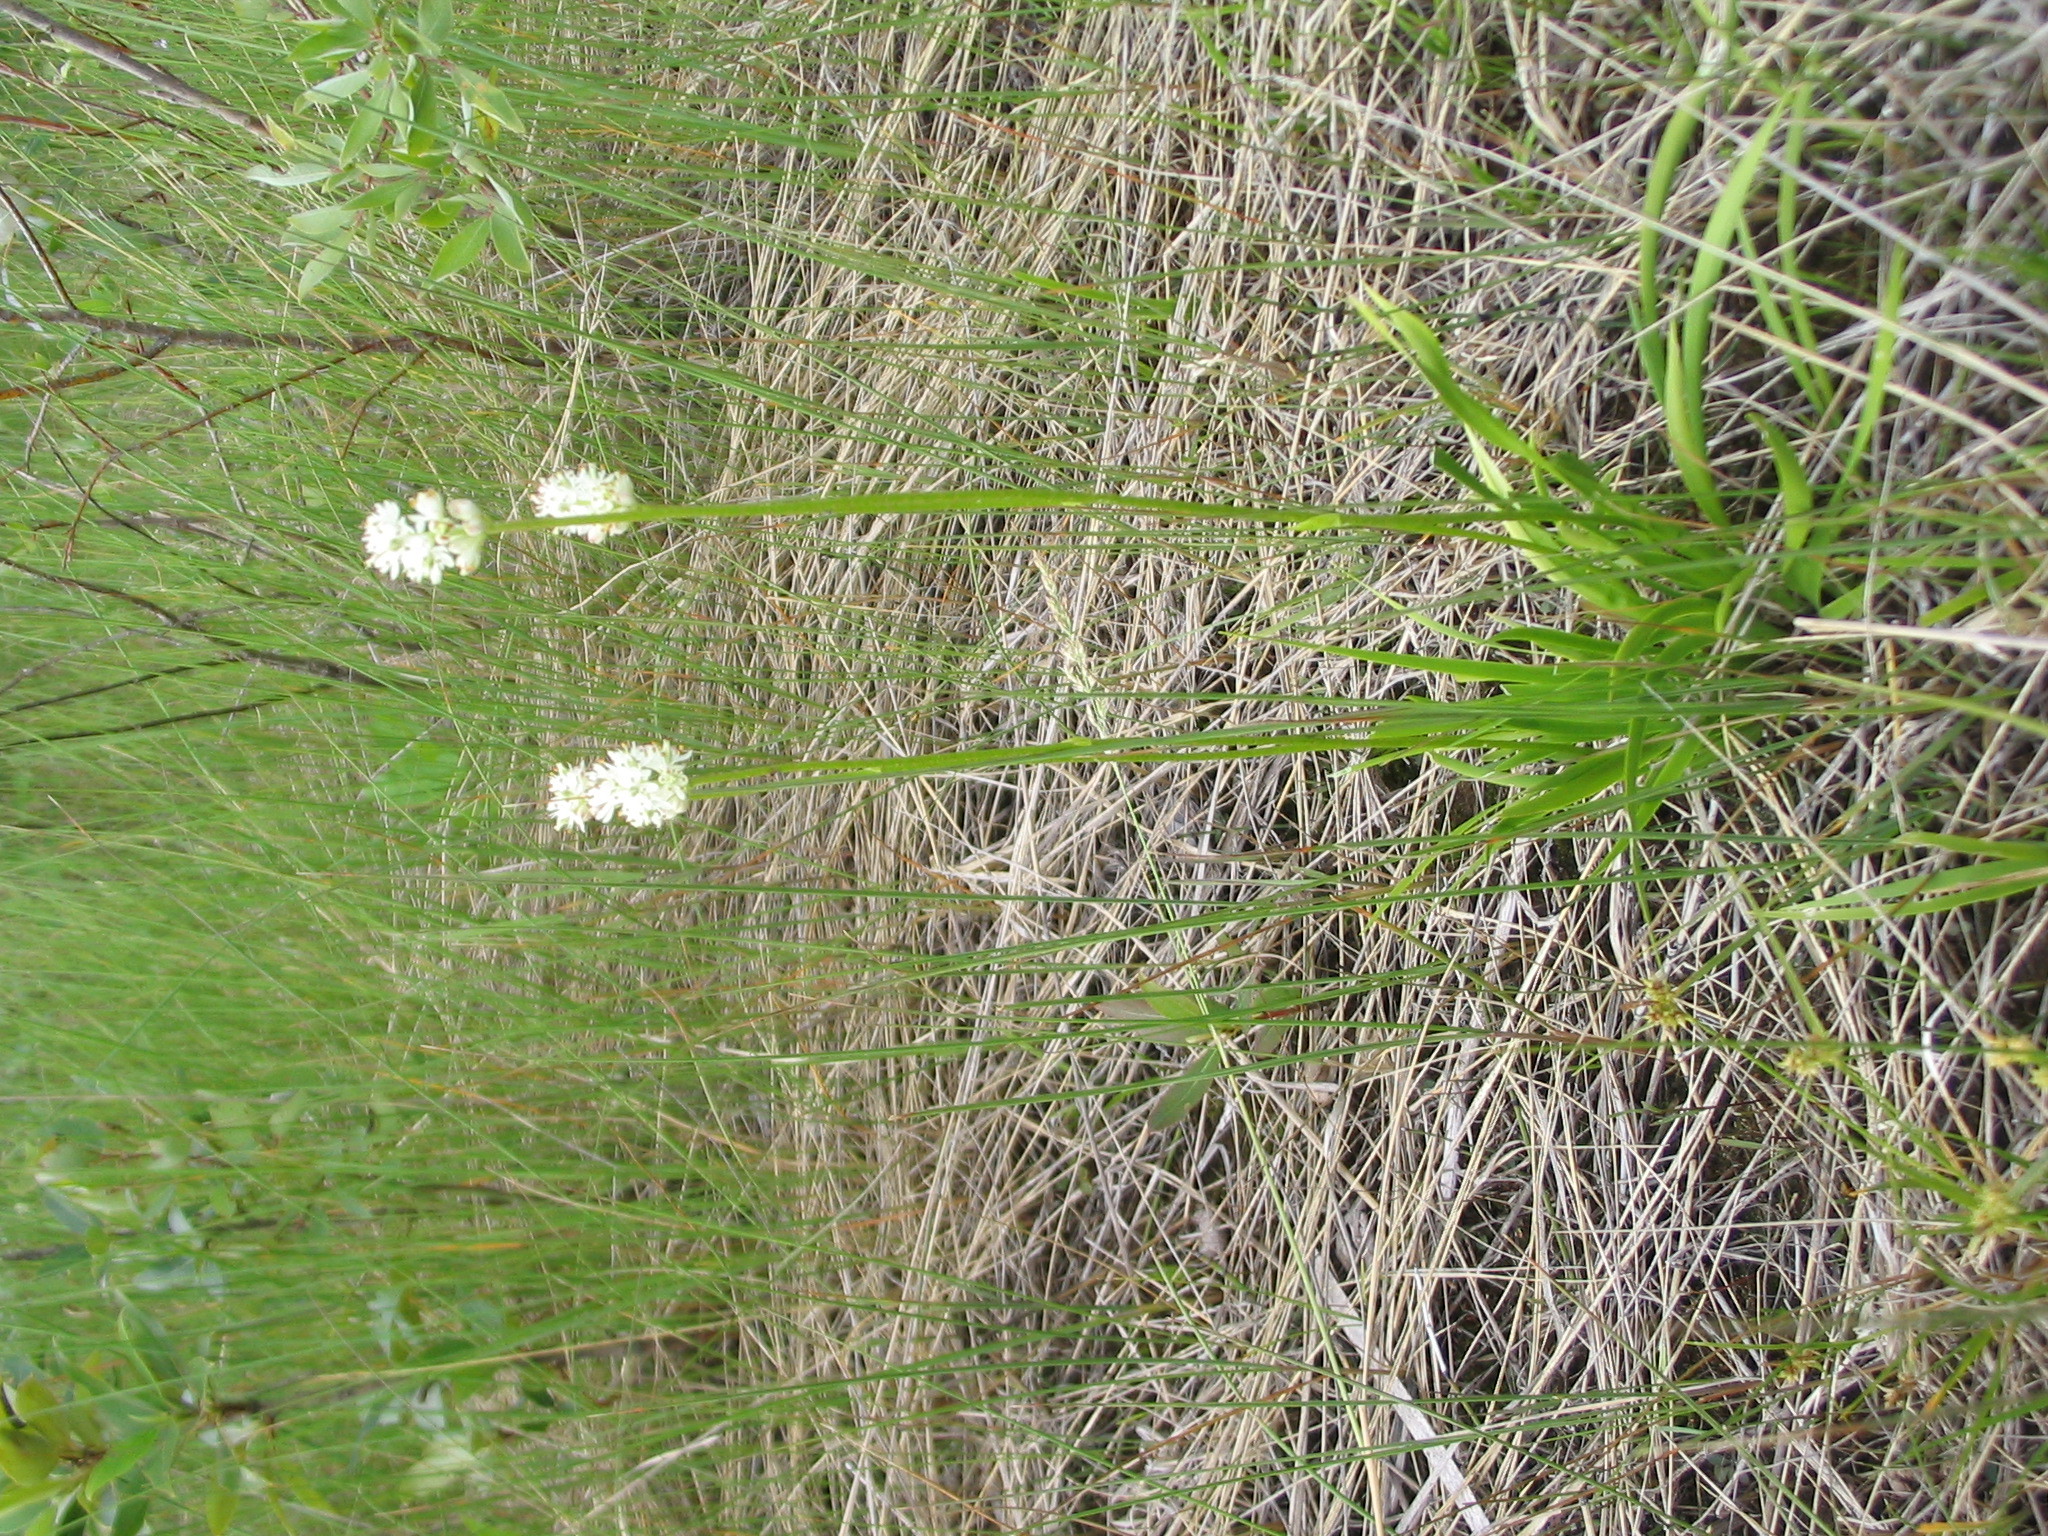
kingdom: Plantae
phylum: Tracheophyta
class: Liliopsida
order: Alismatales
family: Tofieldiaceae
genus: Triantha
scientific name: Triantha glutinosa
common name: Glutinous tofieldia
